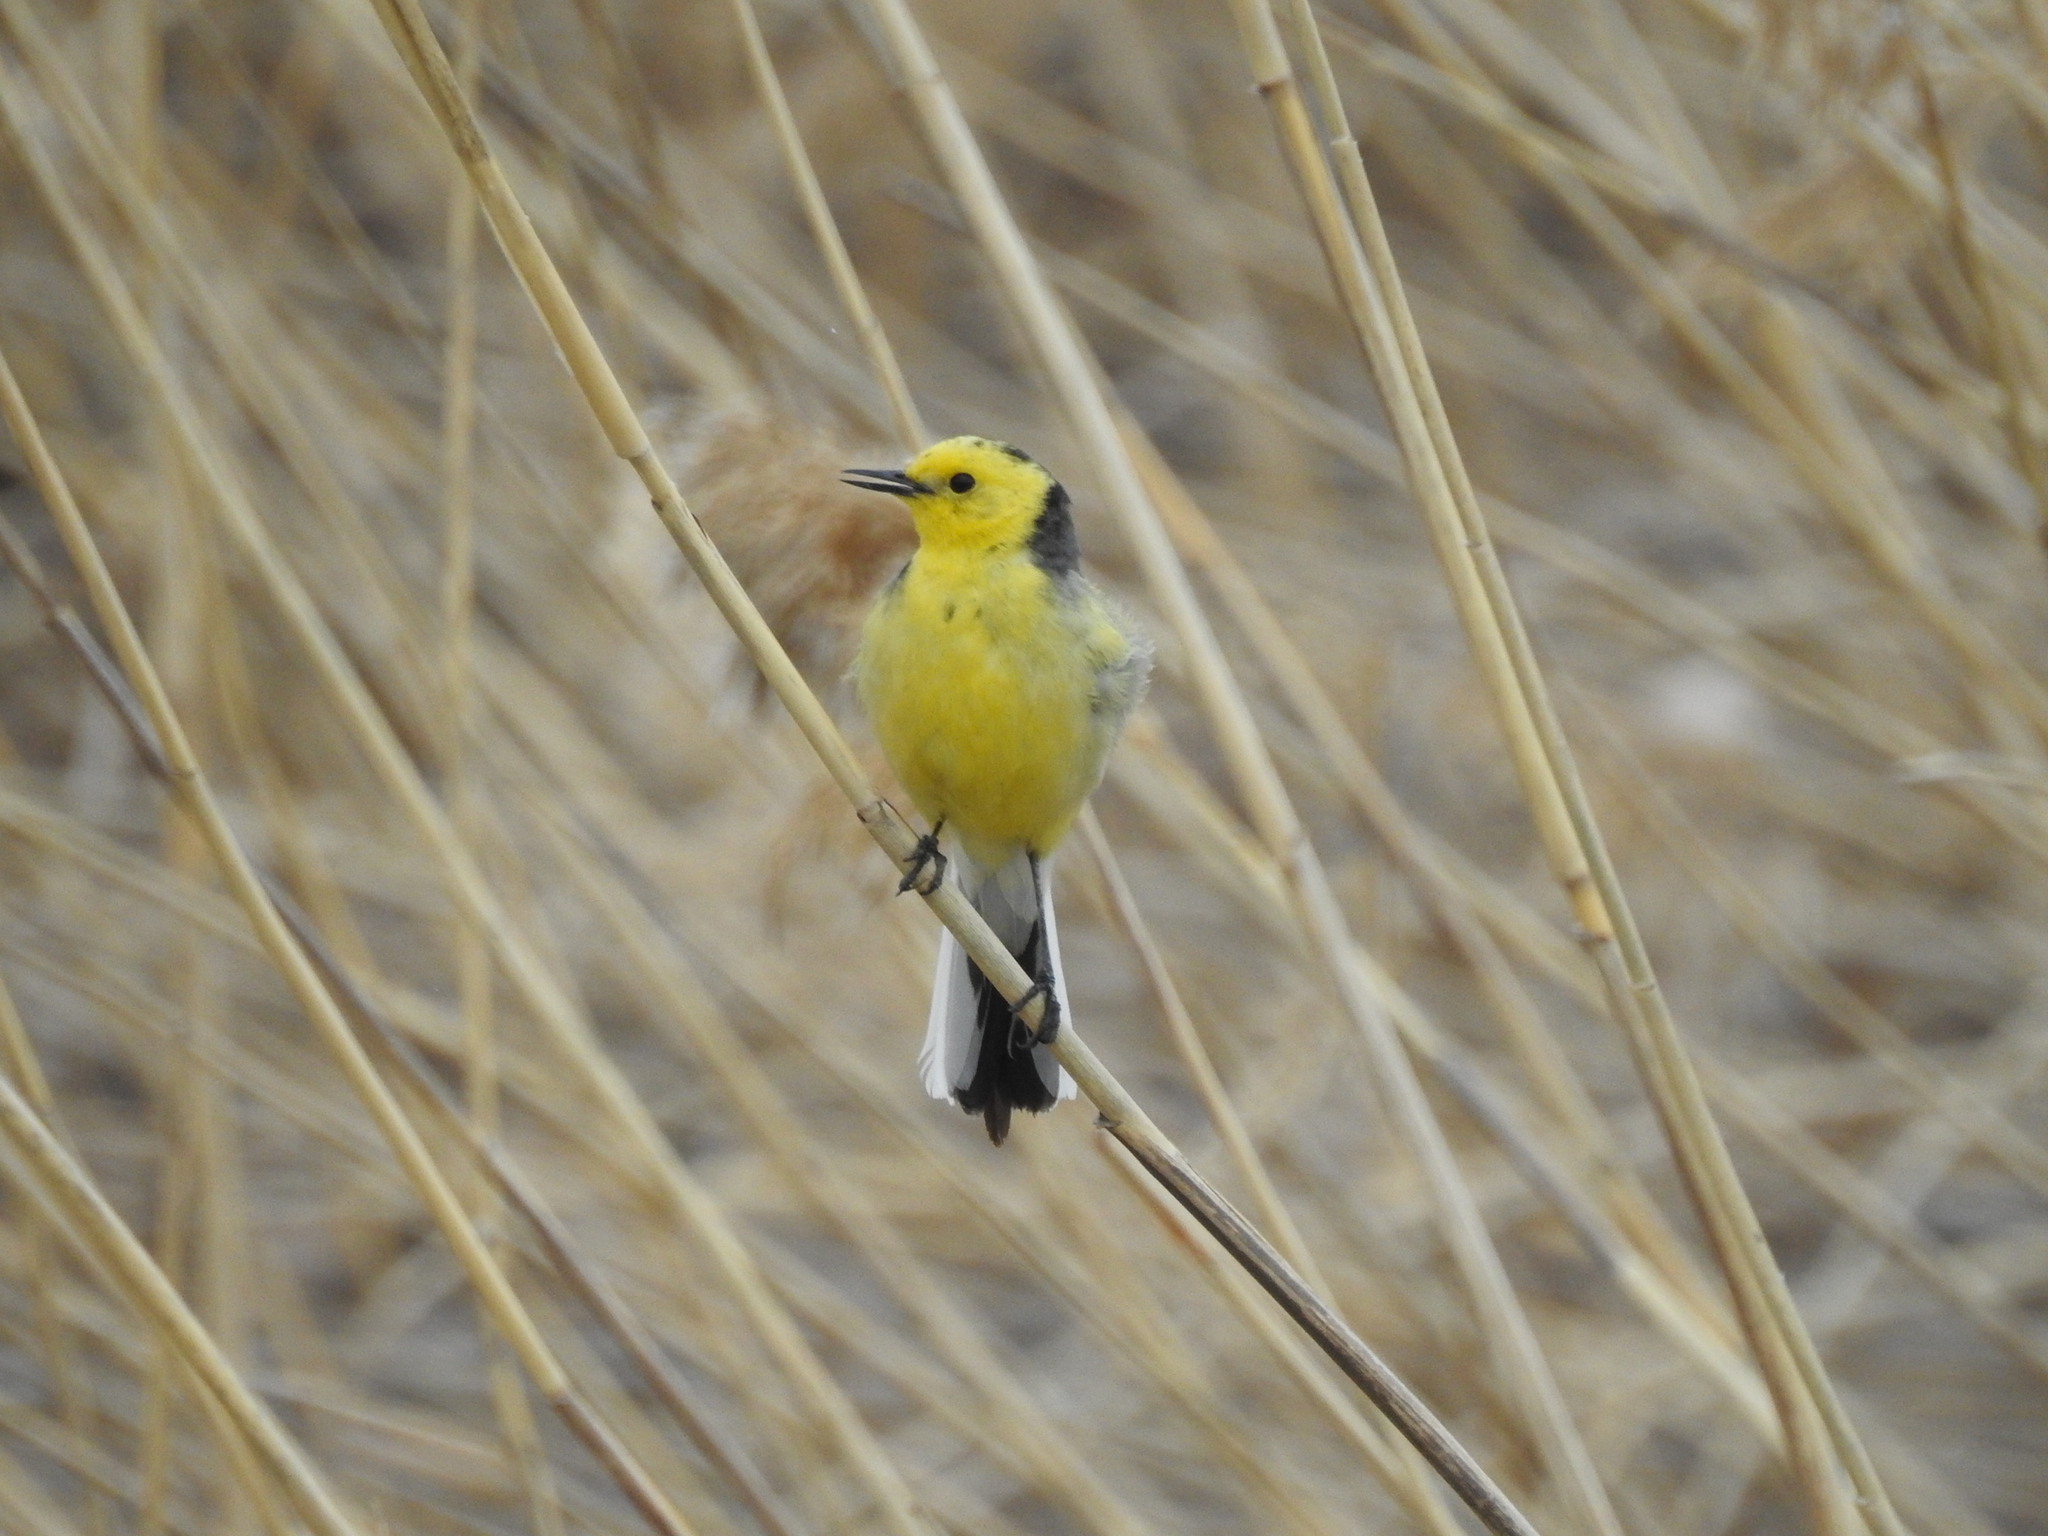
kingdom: Animalia
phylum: Chordata
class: Aves
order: Passeriformes
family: Motacillidae
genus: Motacilla
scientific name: Motacilla citreola
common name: Citrine wagtail
